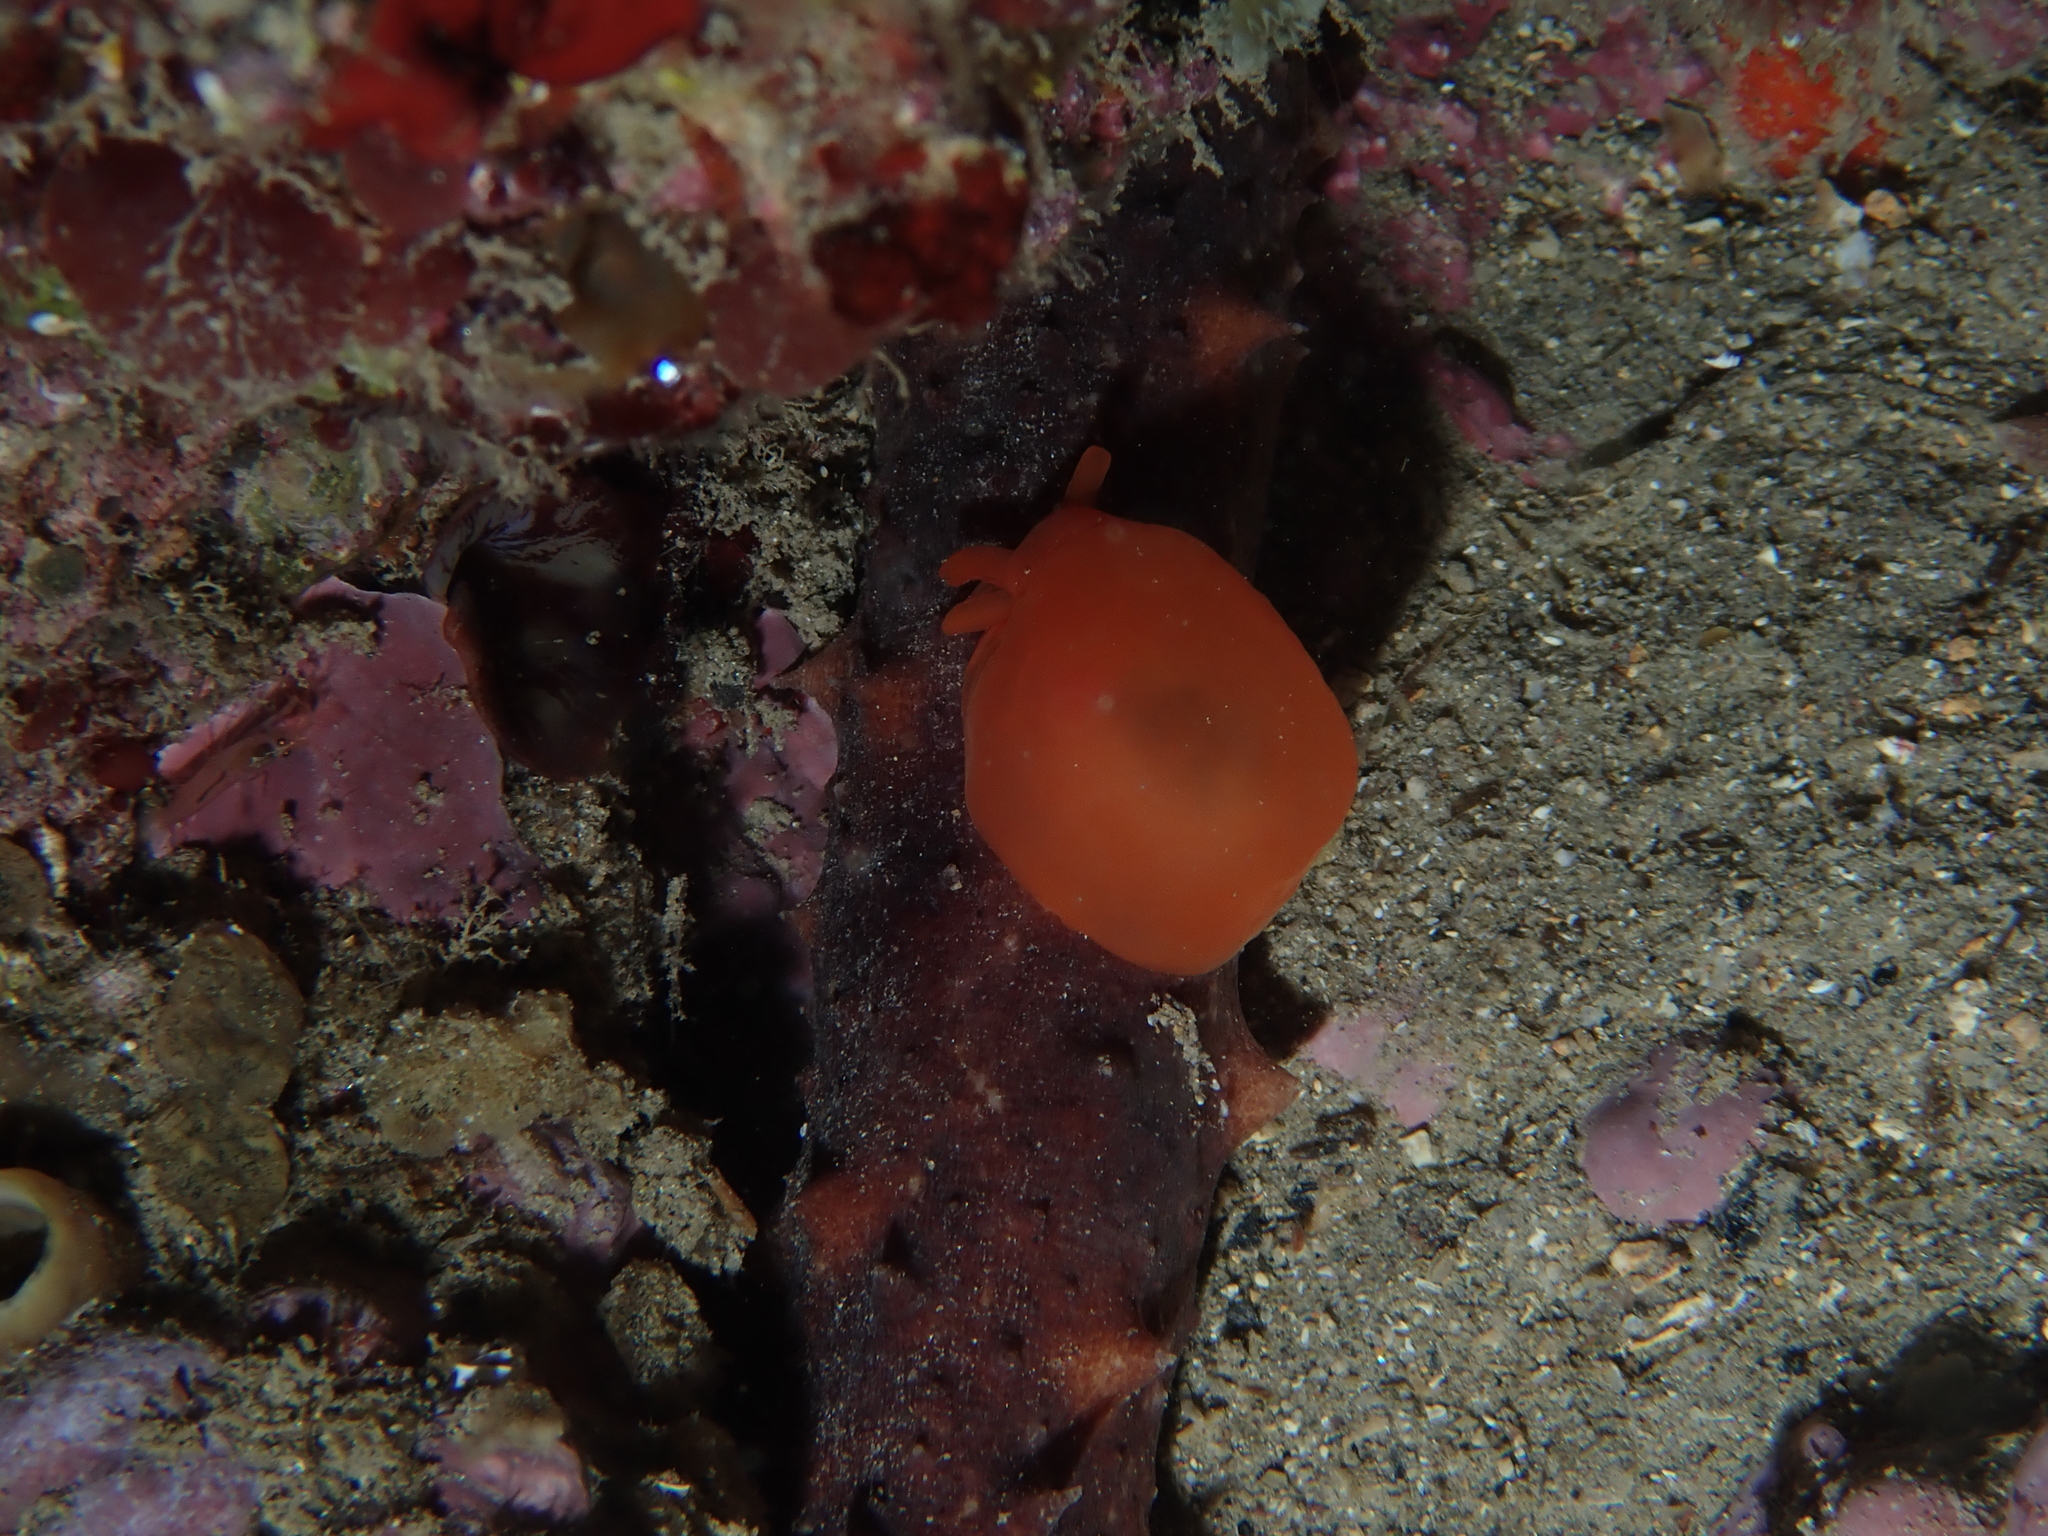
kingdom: Animalia
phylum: Mollusca
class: Gastropoda
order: Pleurobranchida
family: Pleurobranchidae
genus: Berthellina
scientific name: Berthellina edwardsii
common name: Peach seaslug
